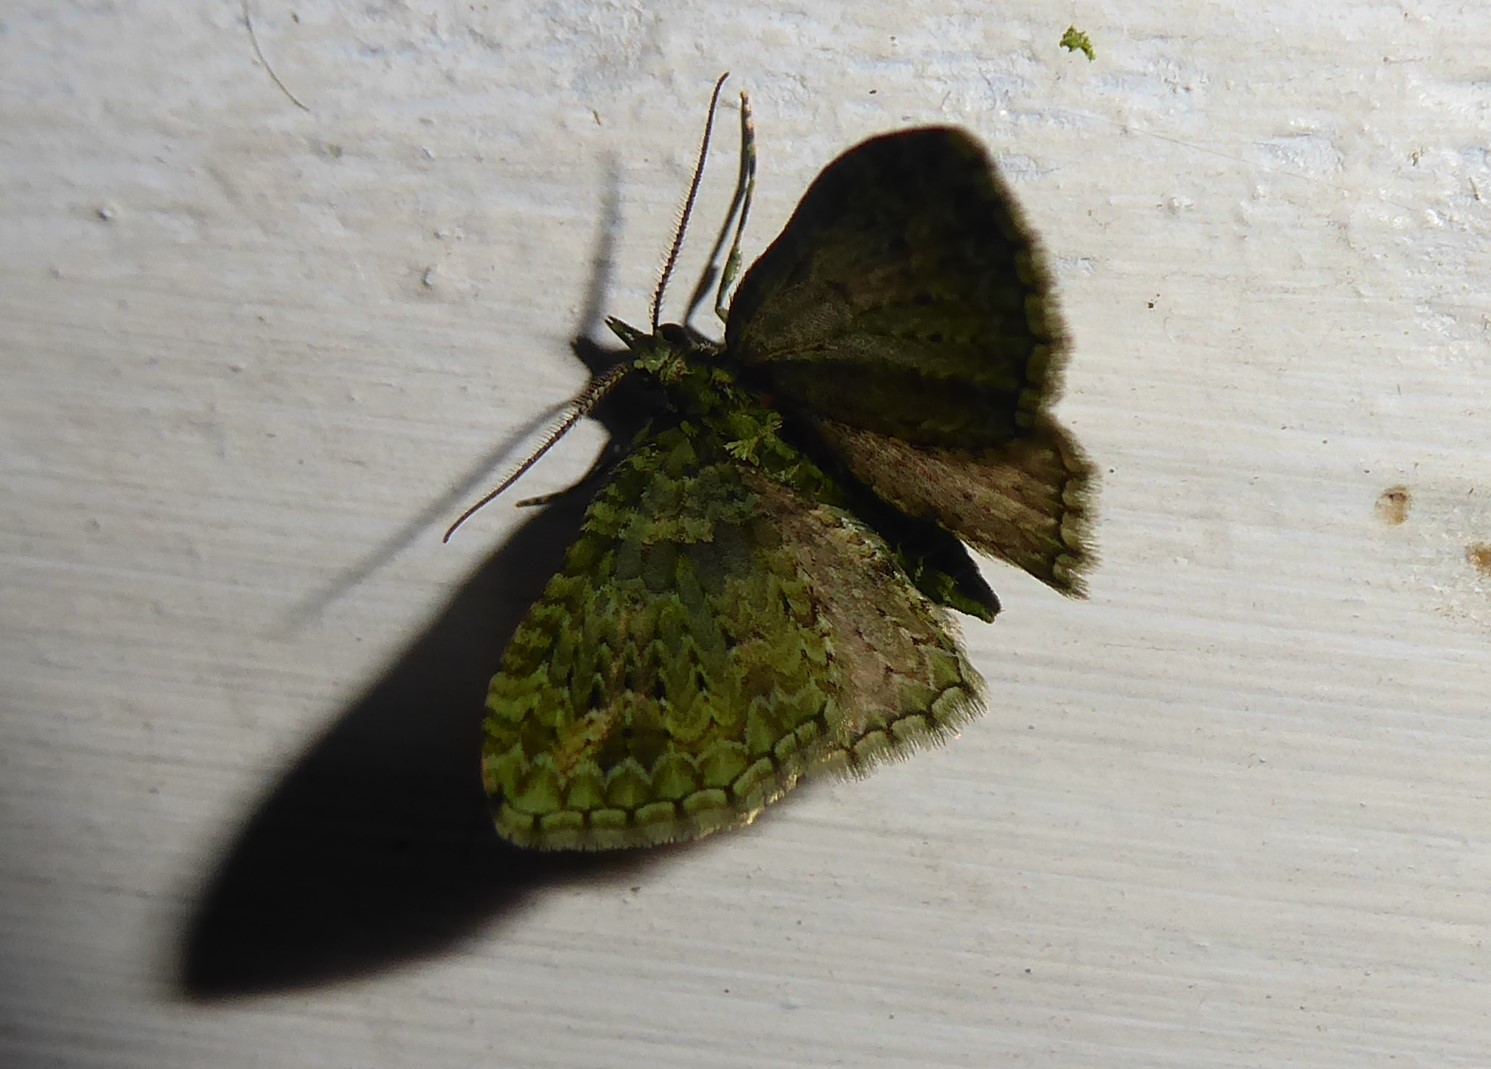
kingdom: Animalia
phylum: Arthropoda
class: Insecta
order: Lepidoptera
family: Geometridae
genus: Pasiphila
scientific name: Pasiphila muscosata
